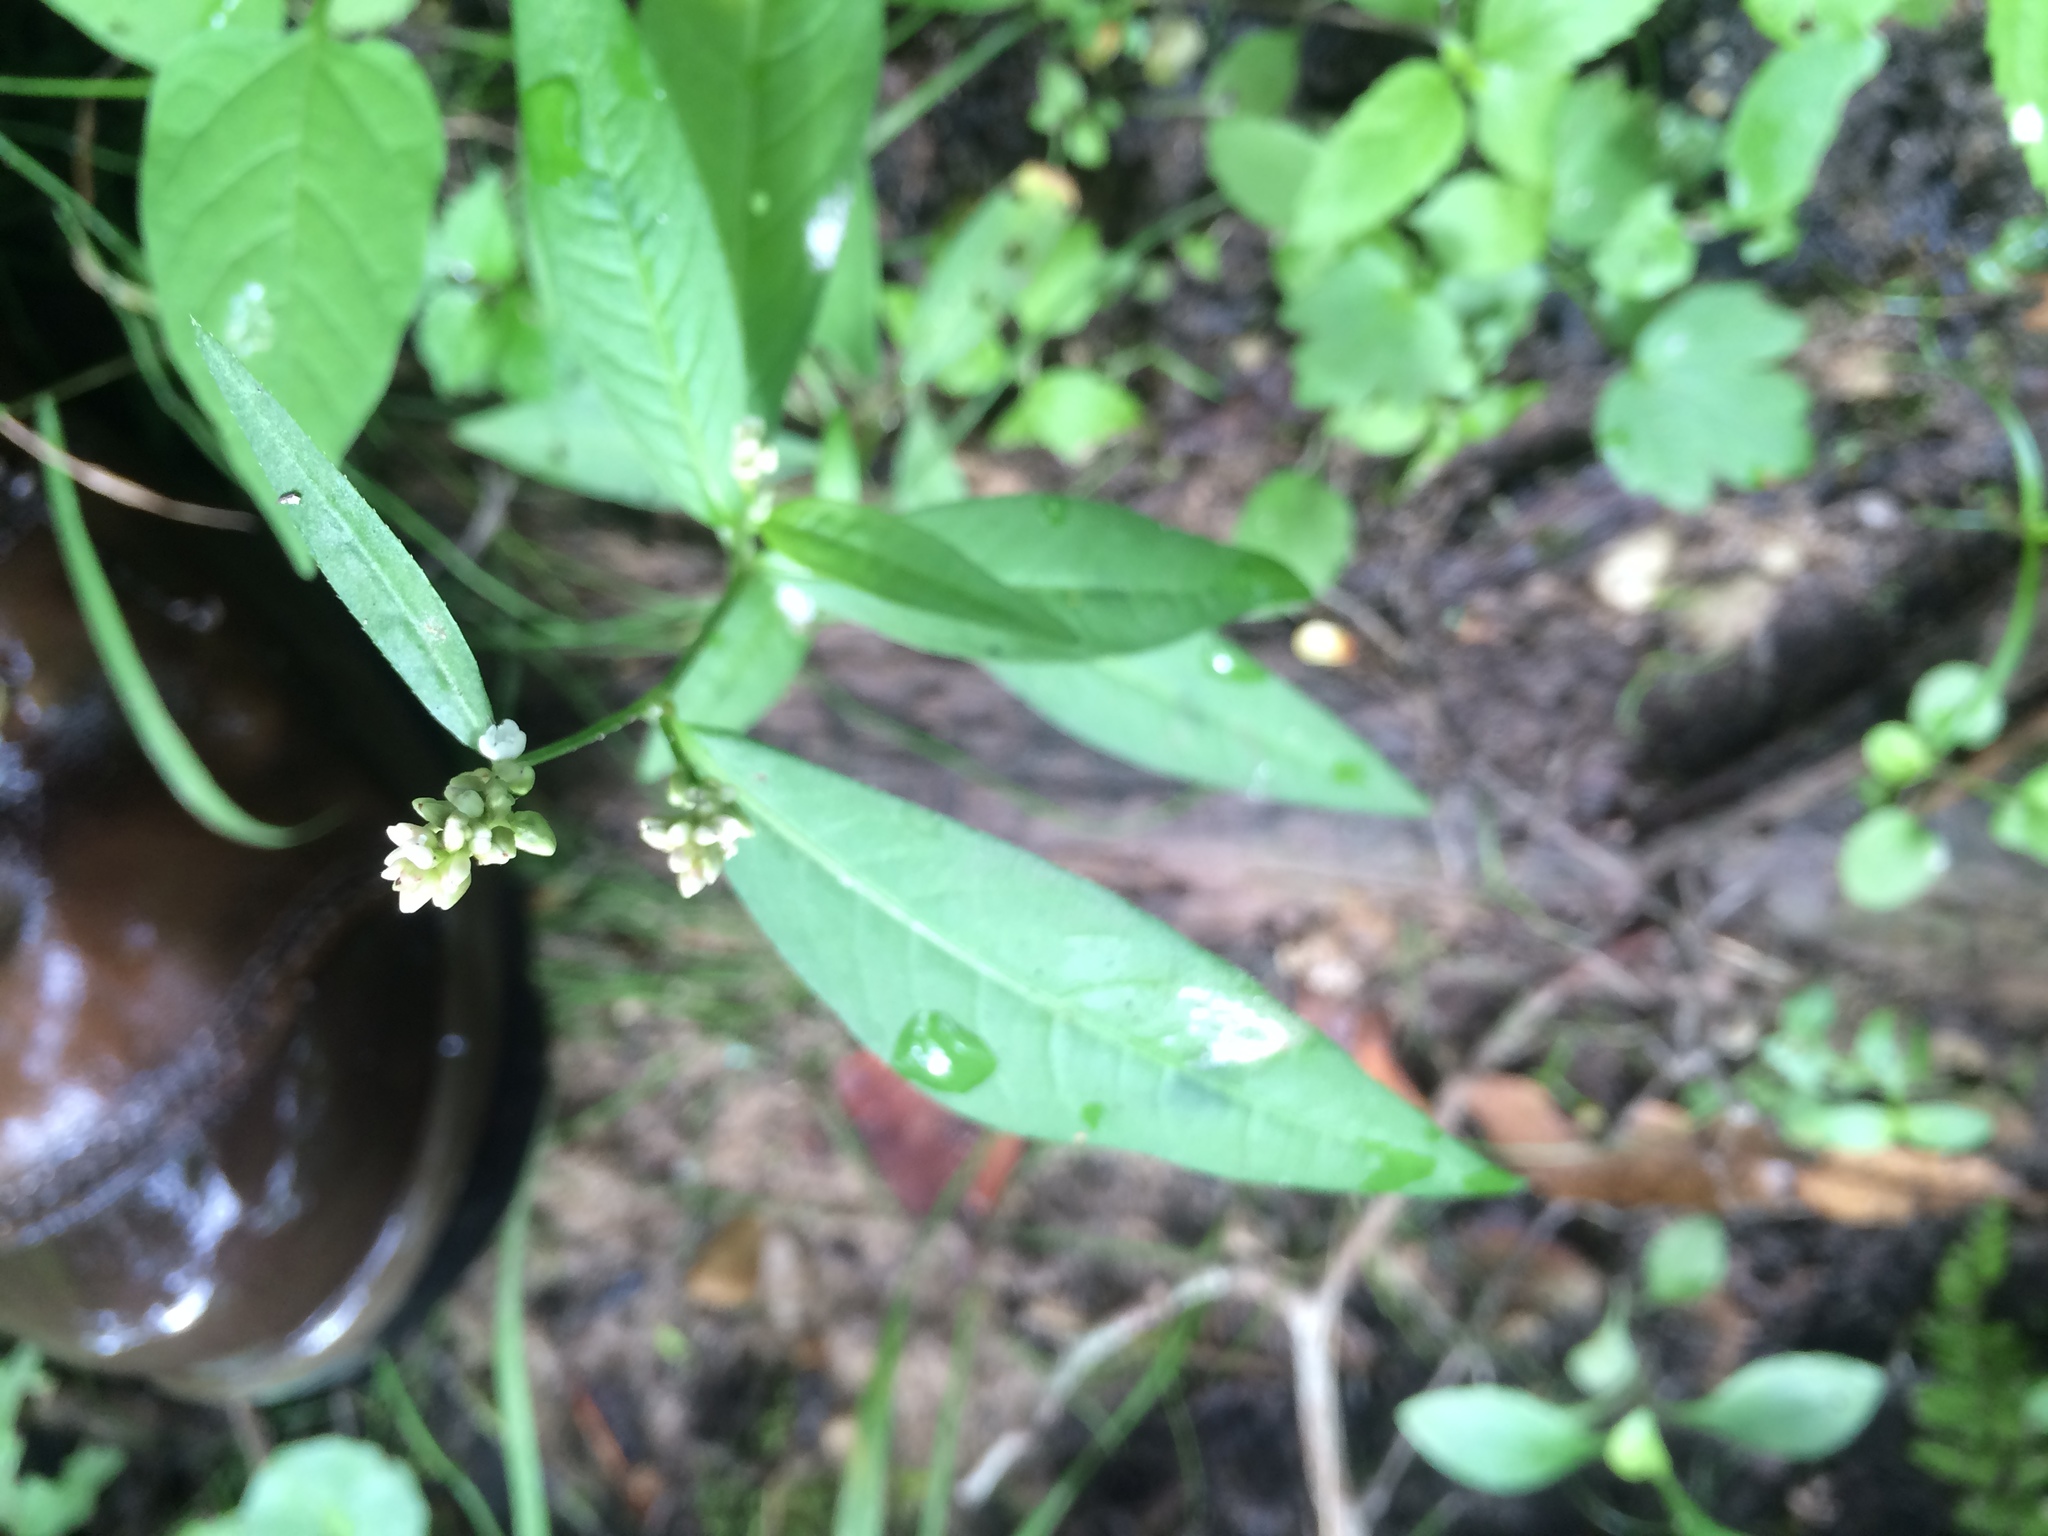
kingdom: Plantae
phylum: Tracheophyta
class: Magnoliopsida
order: Caryophyllales
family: Polygonaceae
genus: Persicaria
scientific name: Persicaria maculosa
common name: Redshank
